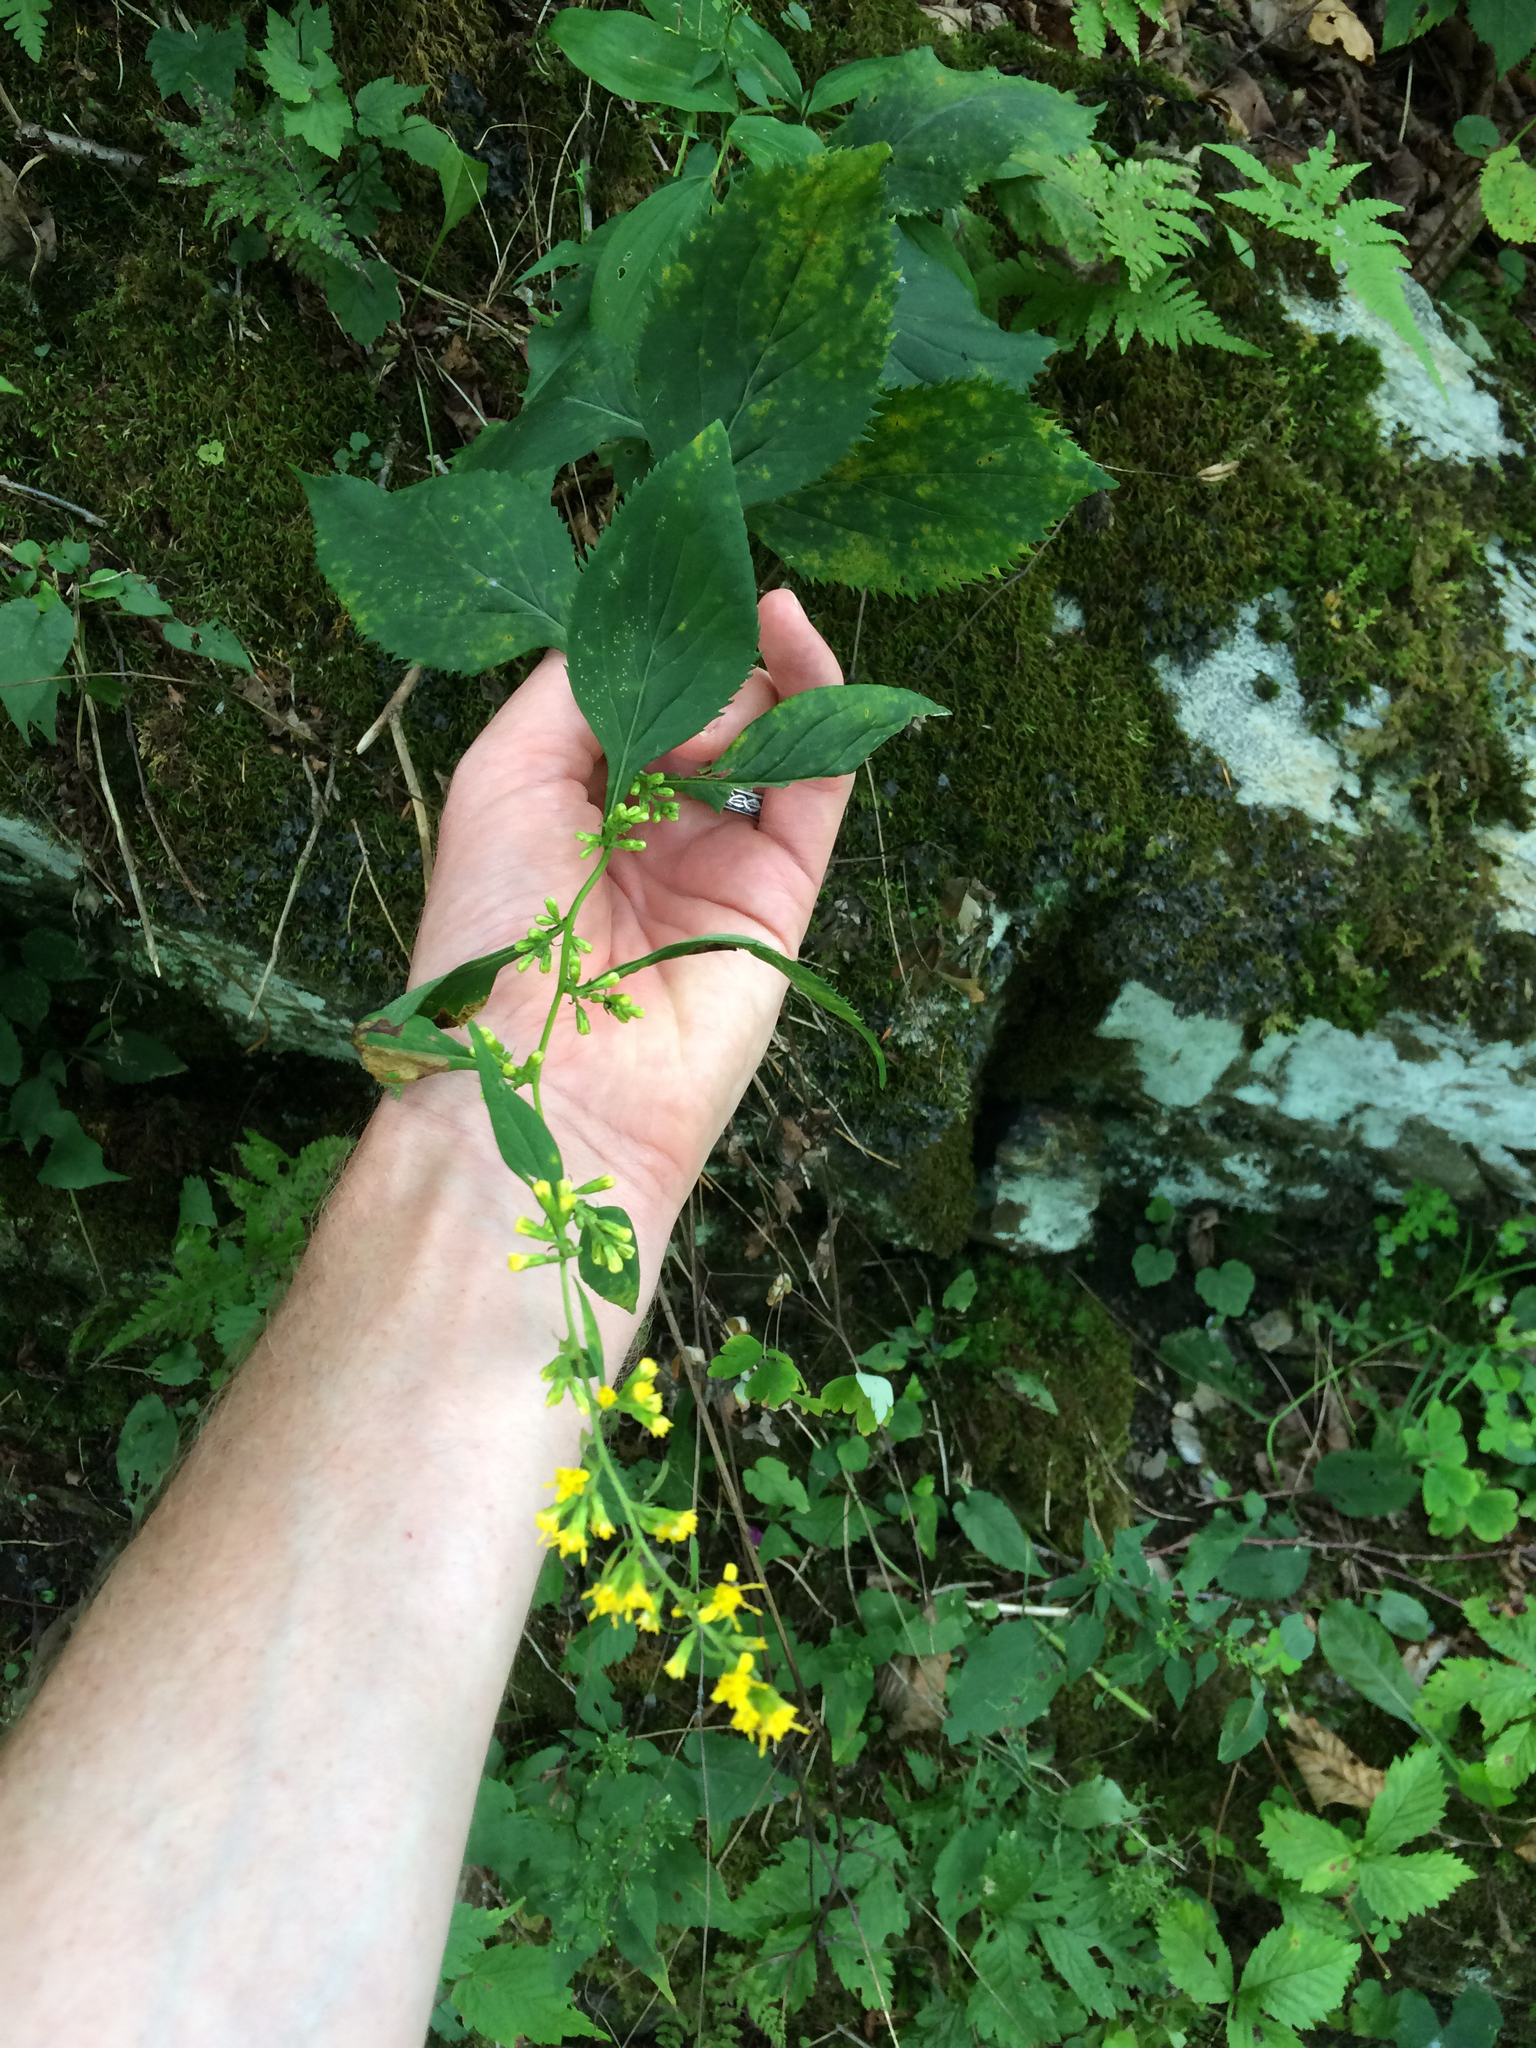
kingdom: Plantae
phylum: Tracheophyta
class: Magnoliopsida
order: Asterales
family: Asteraceae
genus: Solidago
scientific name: Solidago flexicaulis
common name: Zig-zag goldenrod
